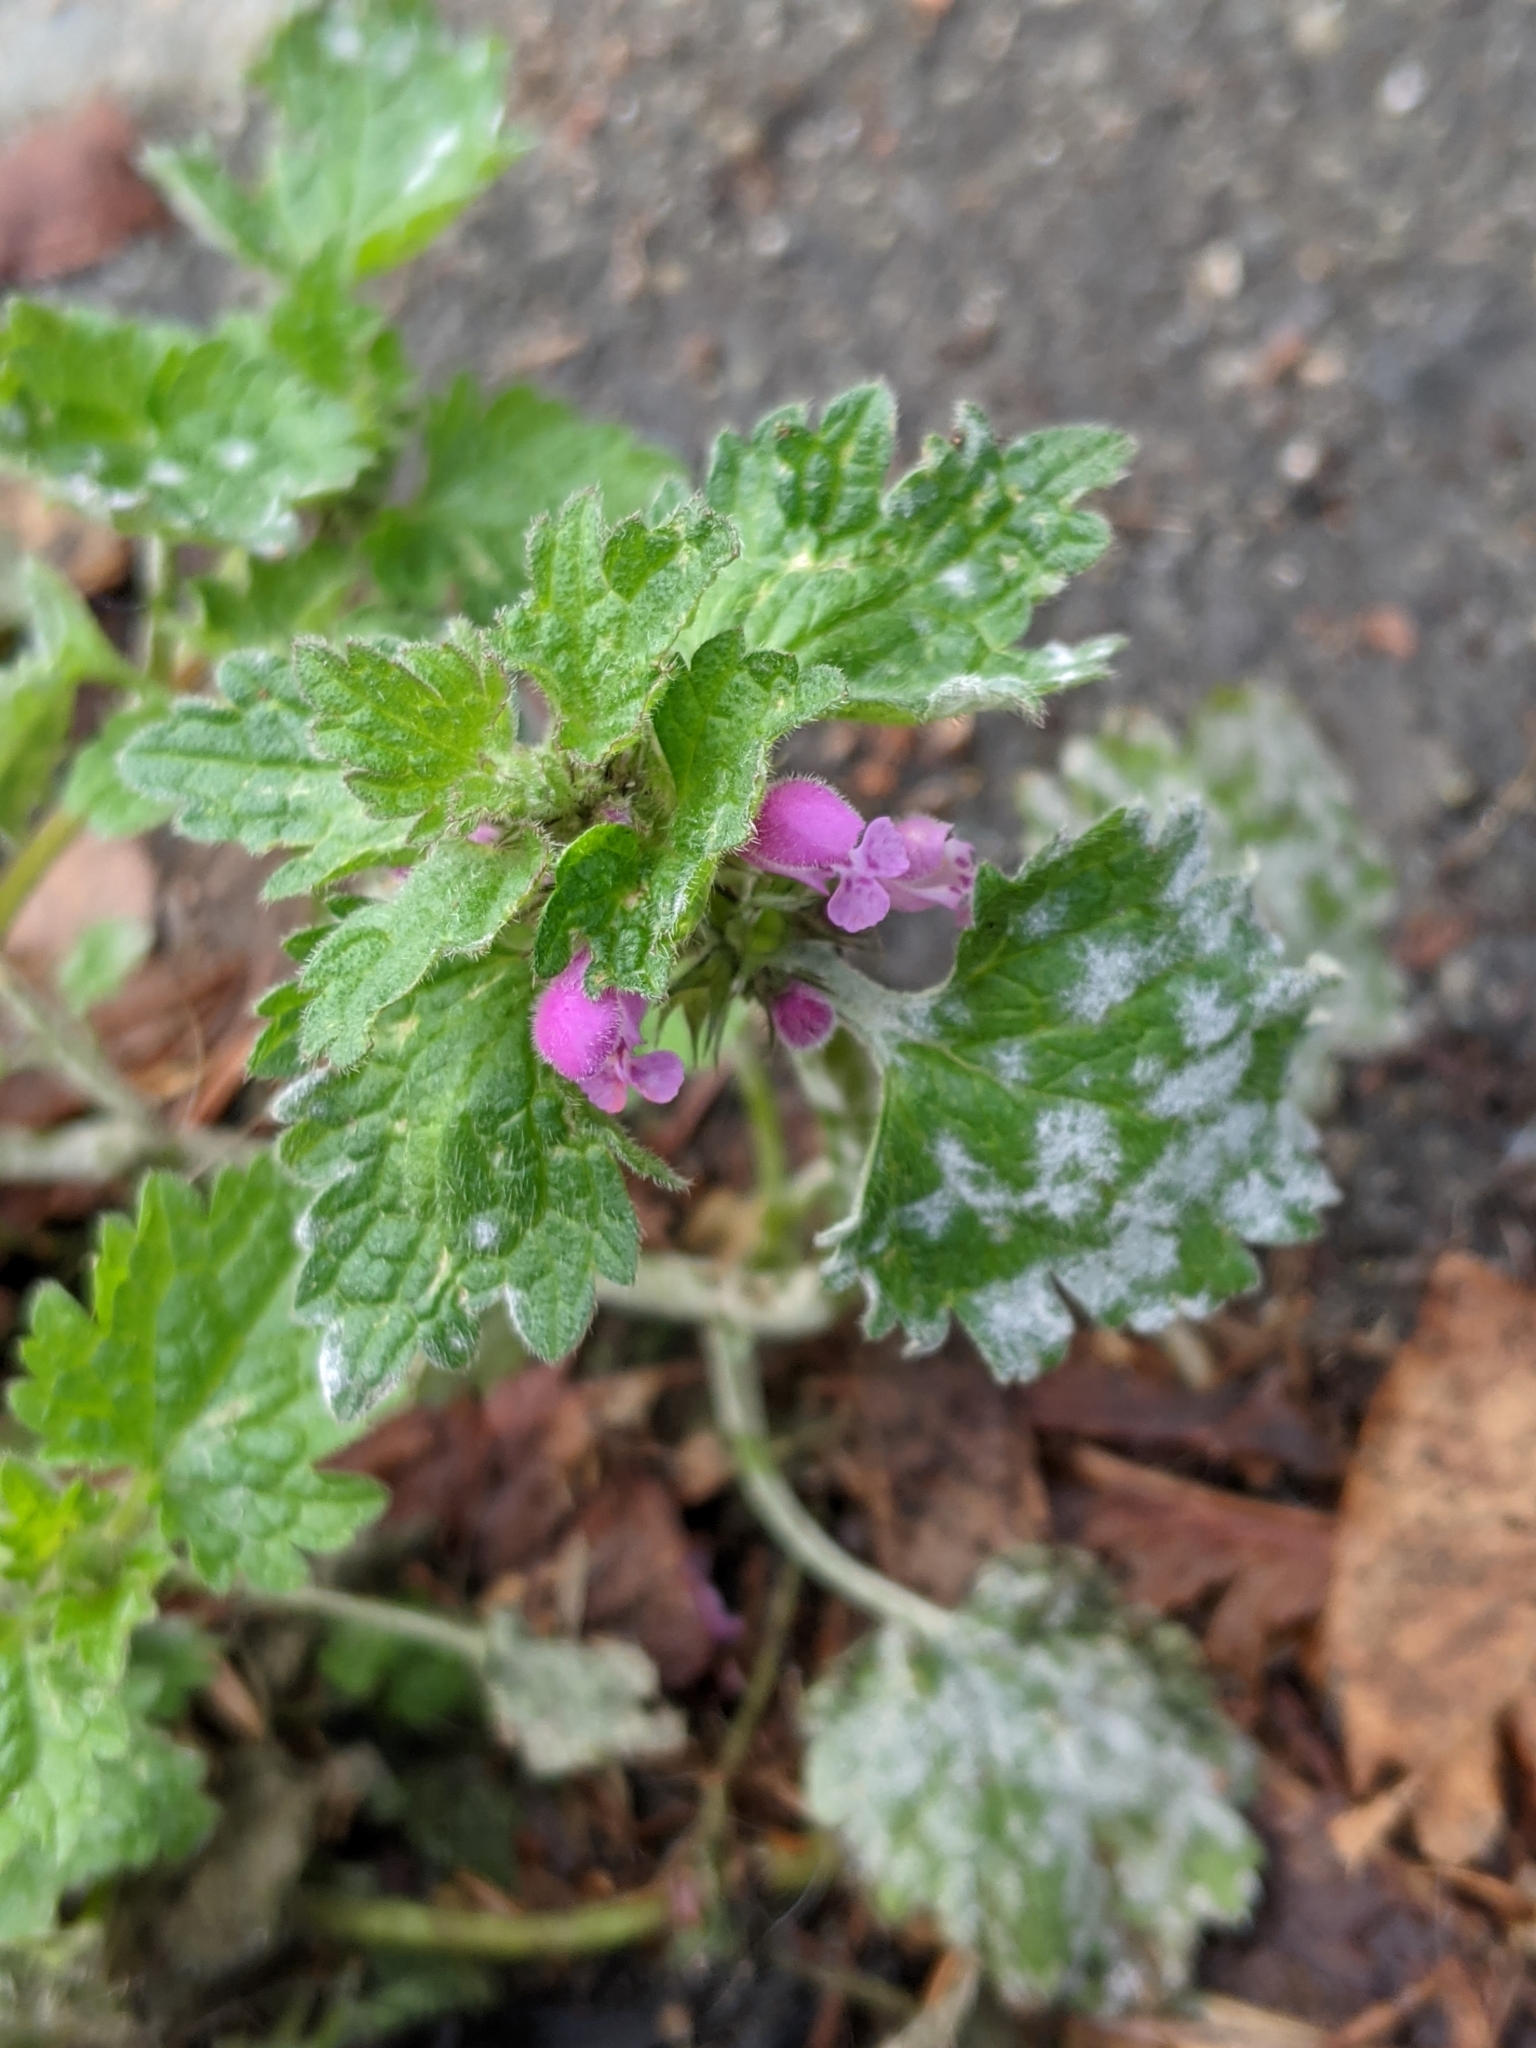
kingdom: Plantae
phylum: Tracheophyta
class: Magnoliopsida
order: Lamiales
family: Lamiaceae
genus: Lamium
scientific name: Lamium hybridum
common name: Cut-leaved dead-nettle
